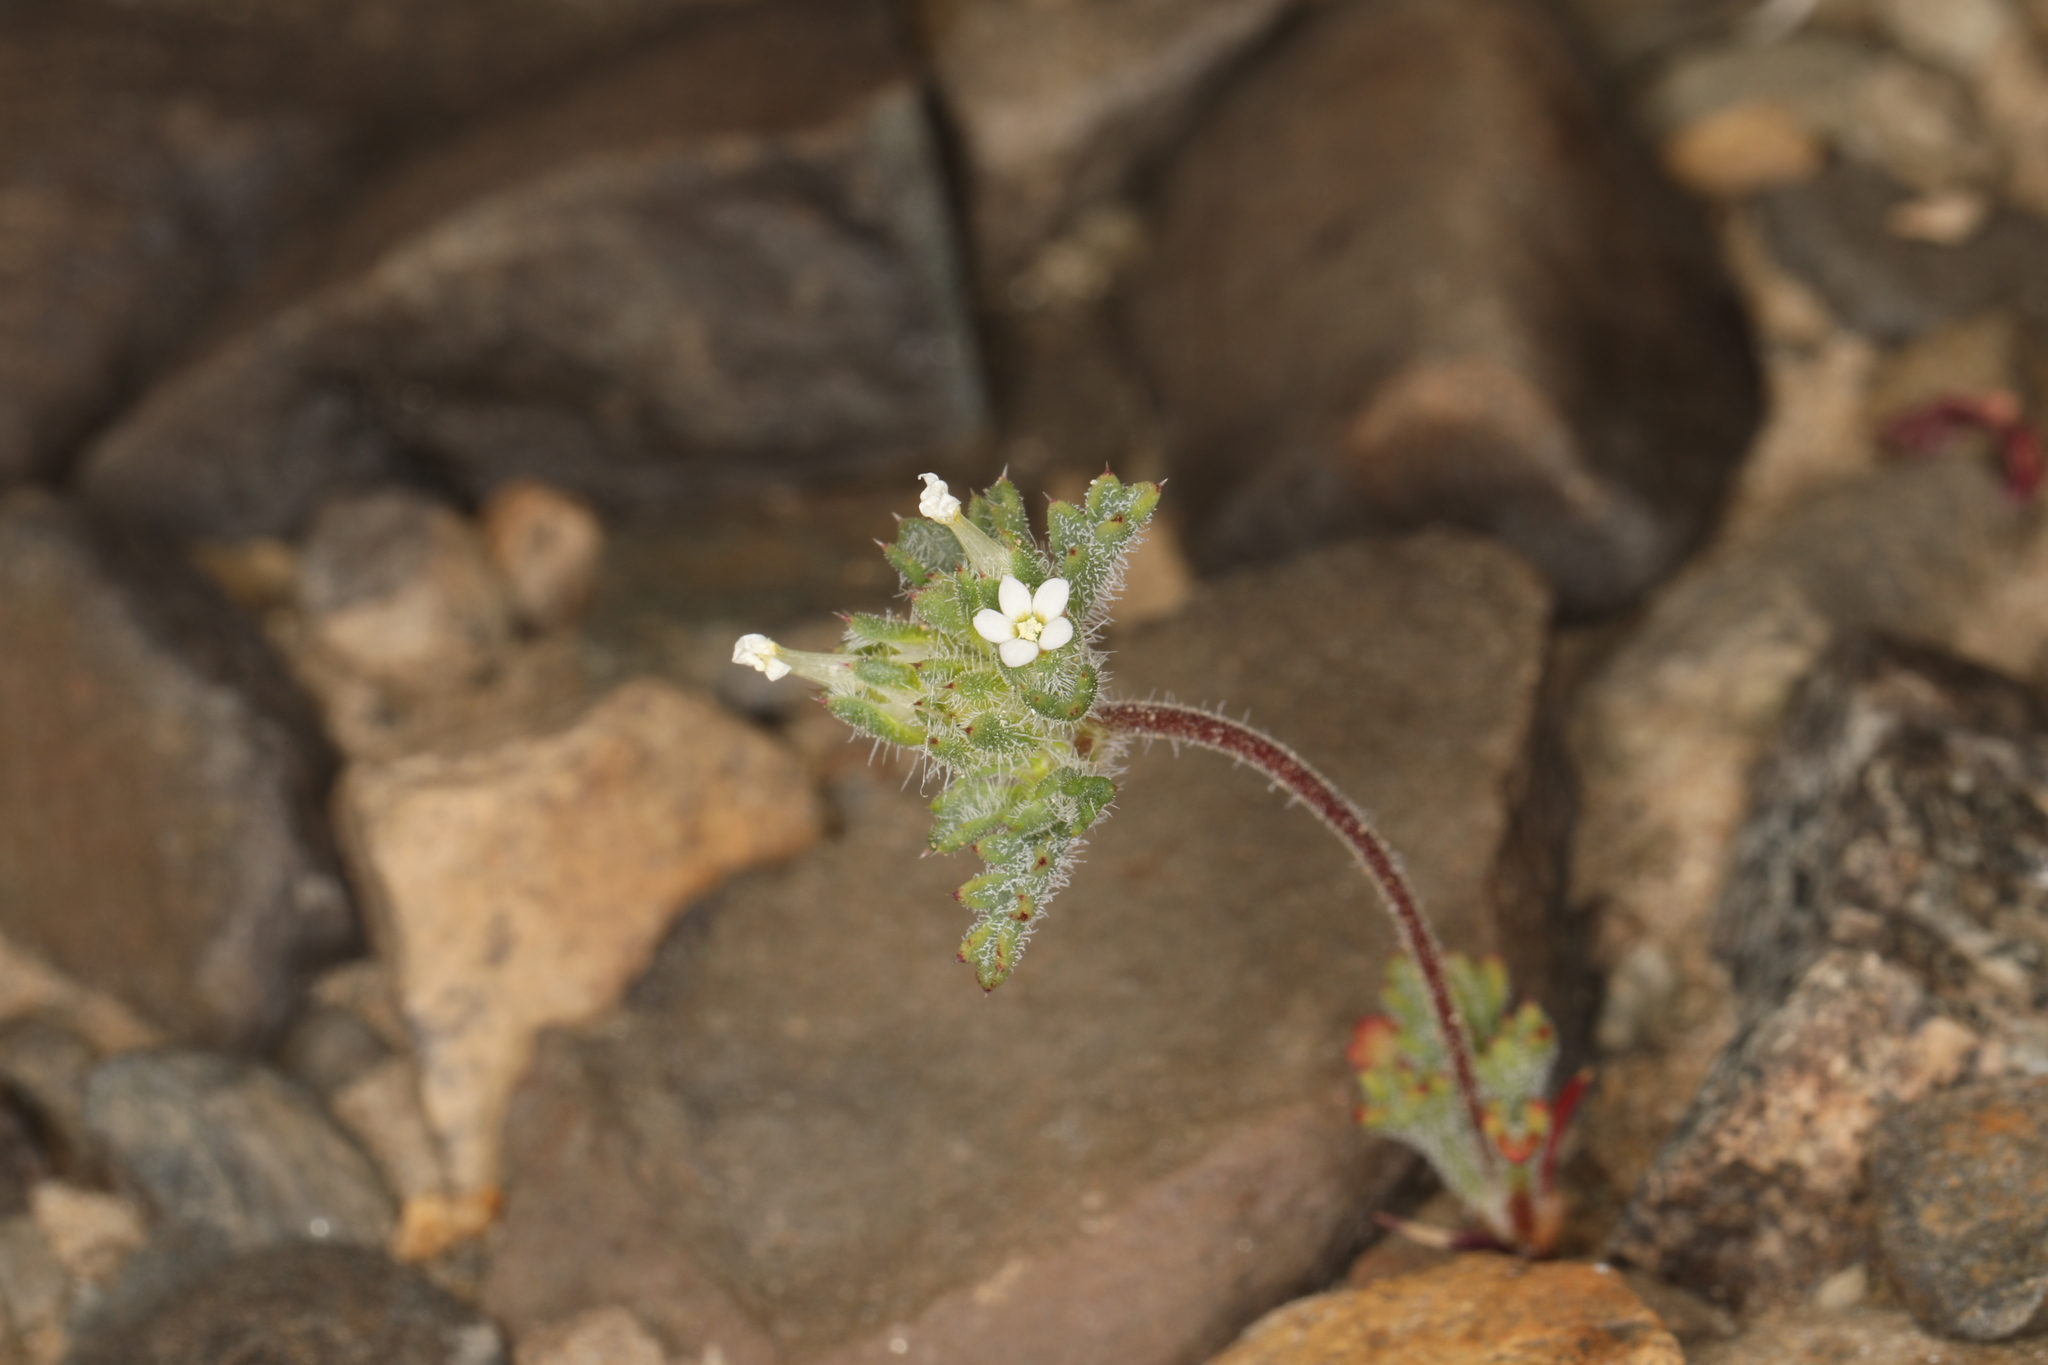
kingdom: Plantae
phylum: Tracheophyta
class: Magnoliopsida
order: Ericales
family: Polemoniaceae
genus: Ipomopsis
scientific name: Ipomopsis polycladon
